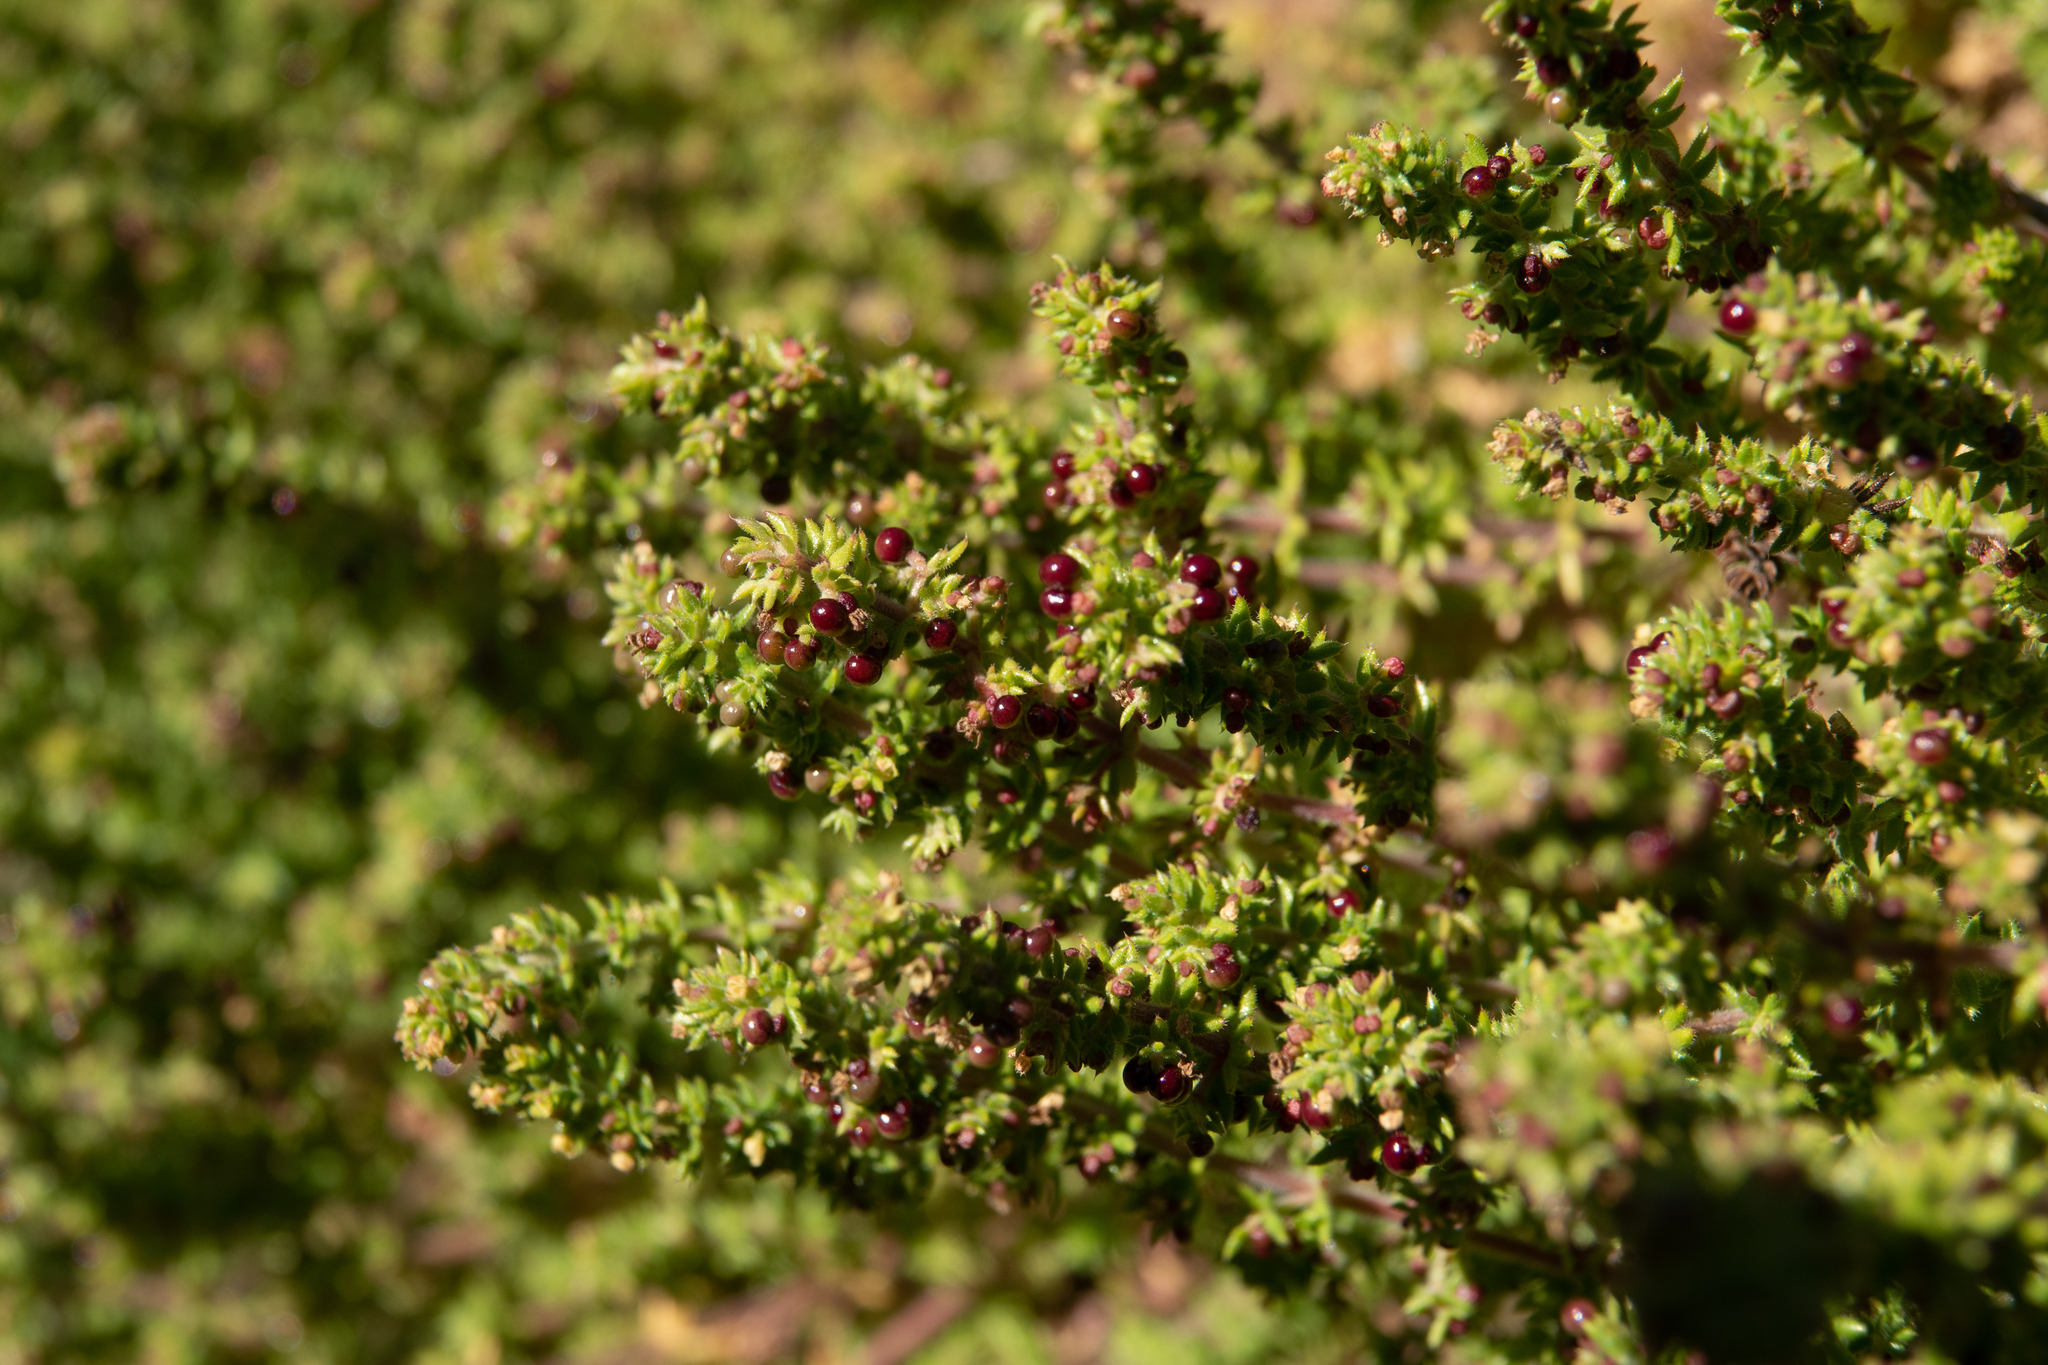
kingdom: Plantae
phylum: Tracheophyta
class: Magnoliopsida
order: Gentianales
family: Rubiaceae
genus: Galium
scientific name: Galium hardhamiae
